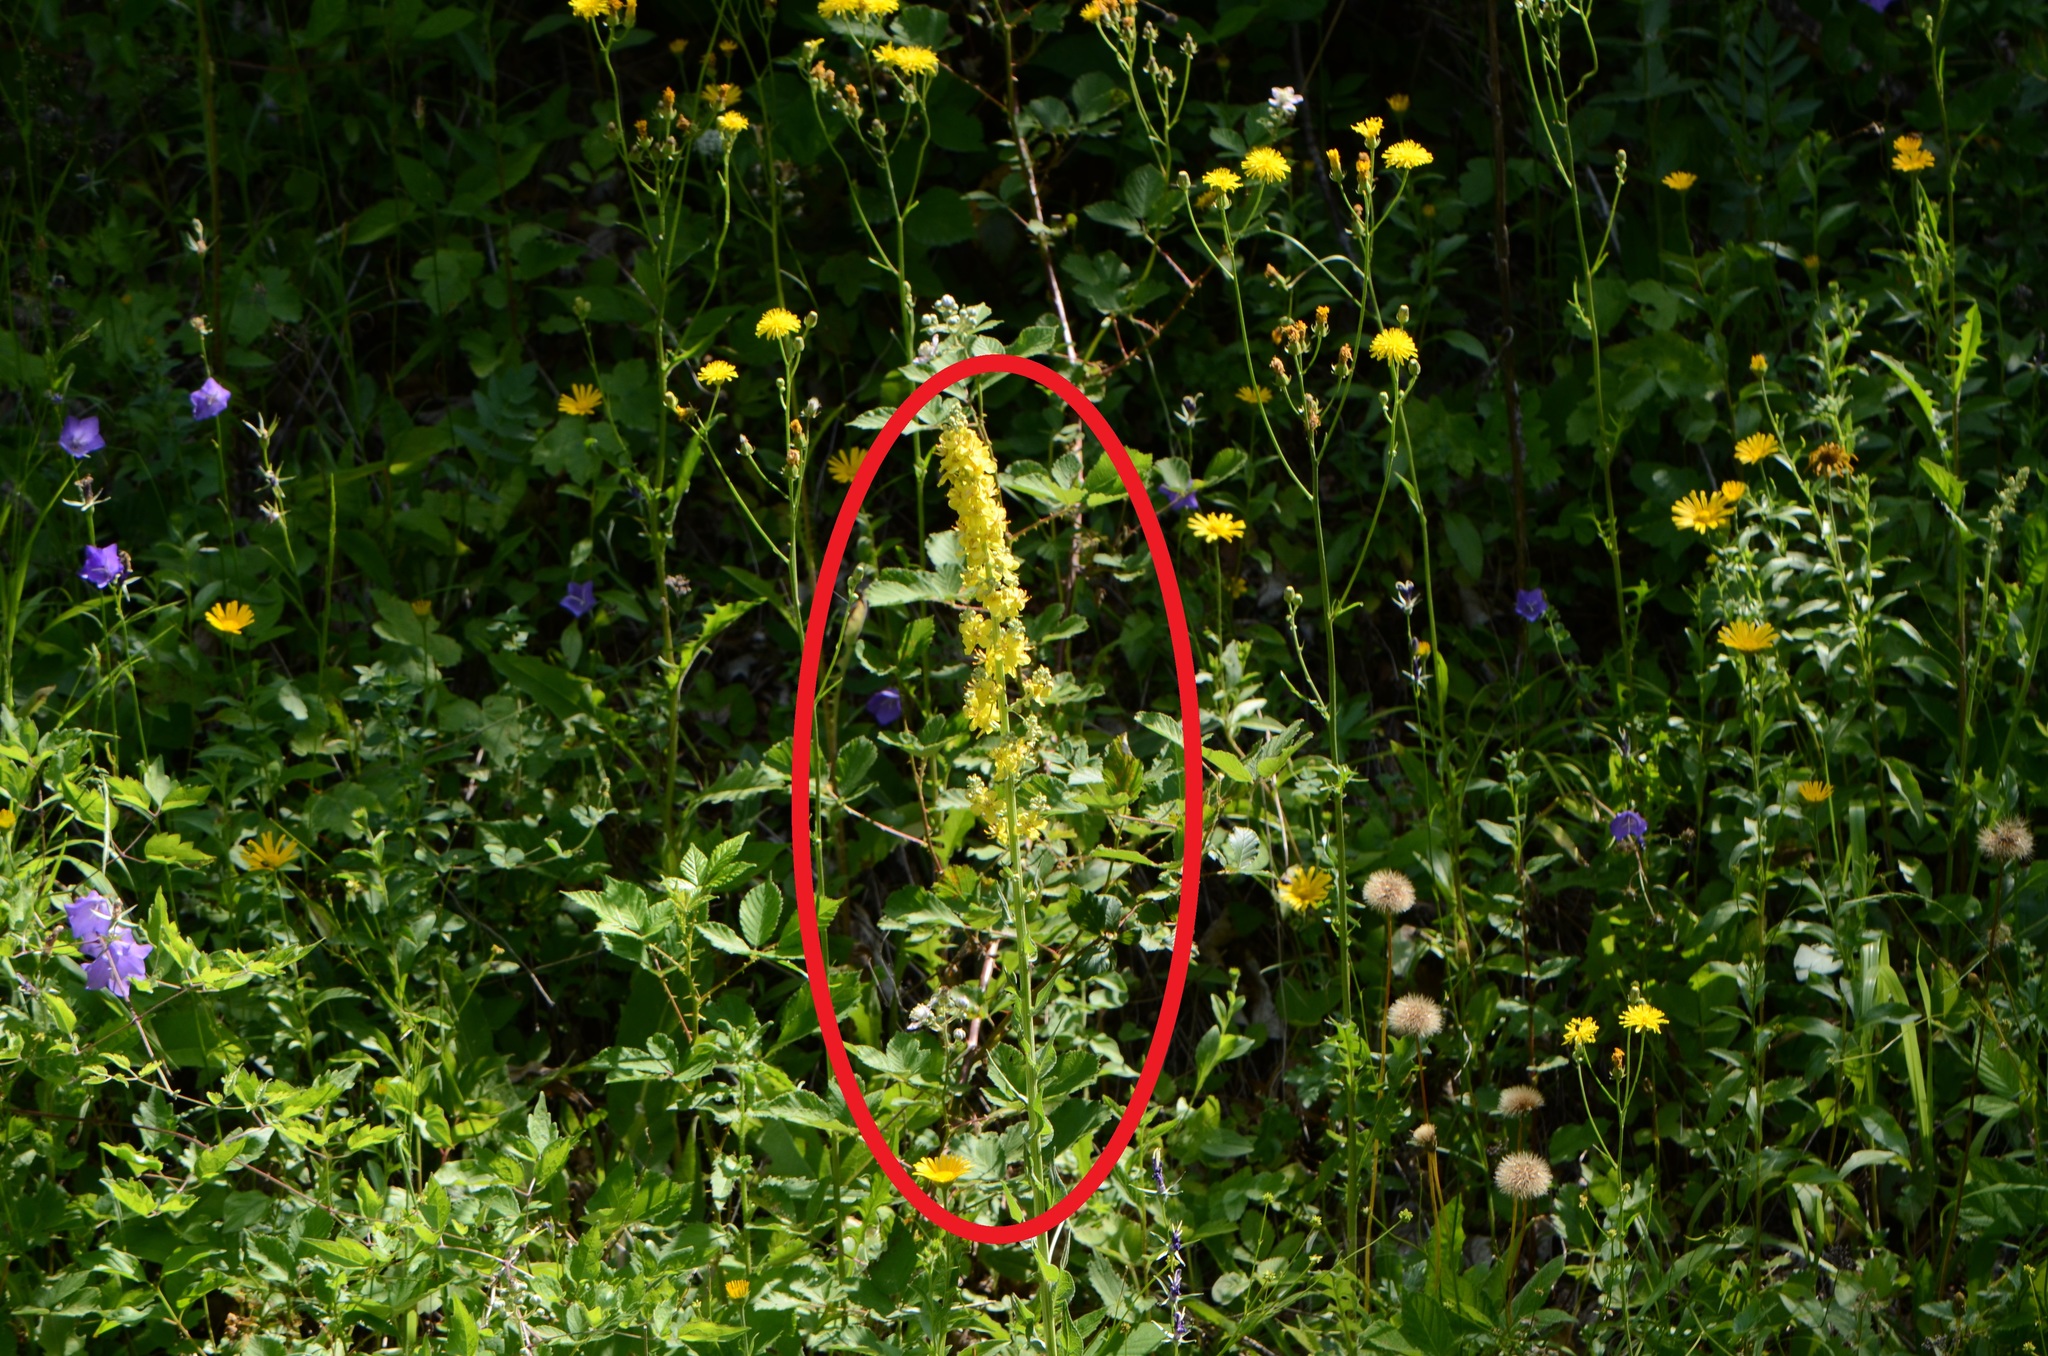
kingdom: Plantae
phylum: Tracheophyta
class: Magnoliopsida
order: Lamiales
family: Scrophulariaceae
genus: Verbascum
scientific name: Verbascum lychnitis
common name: White mullein
